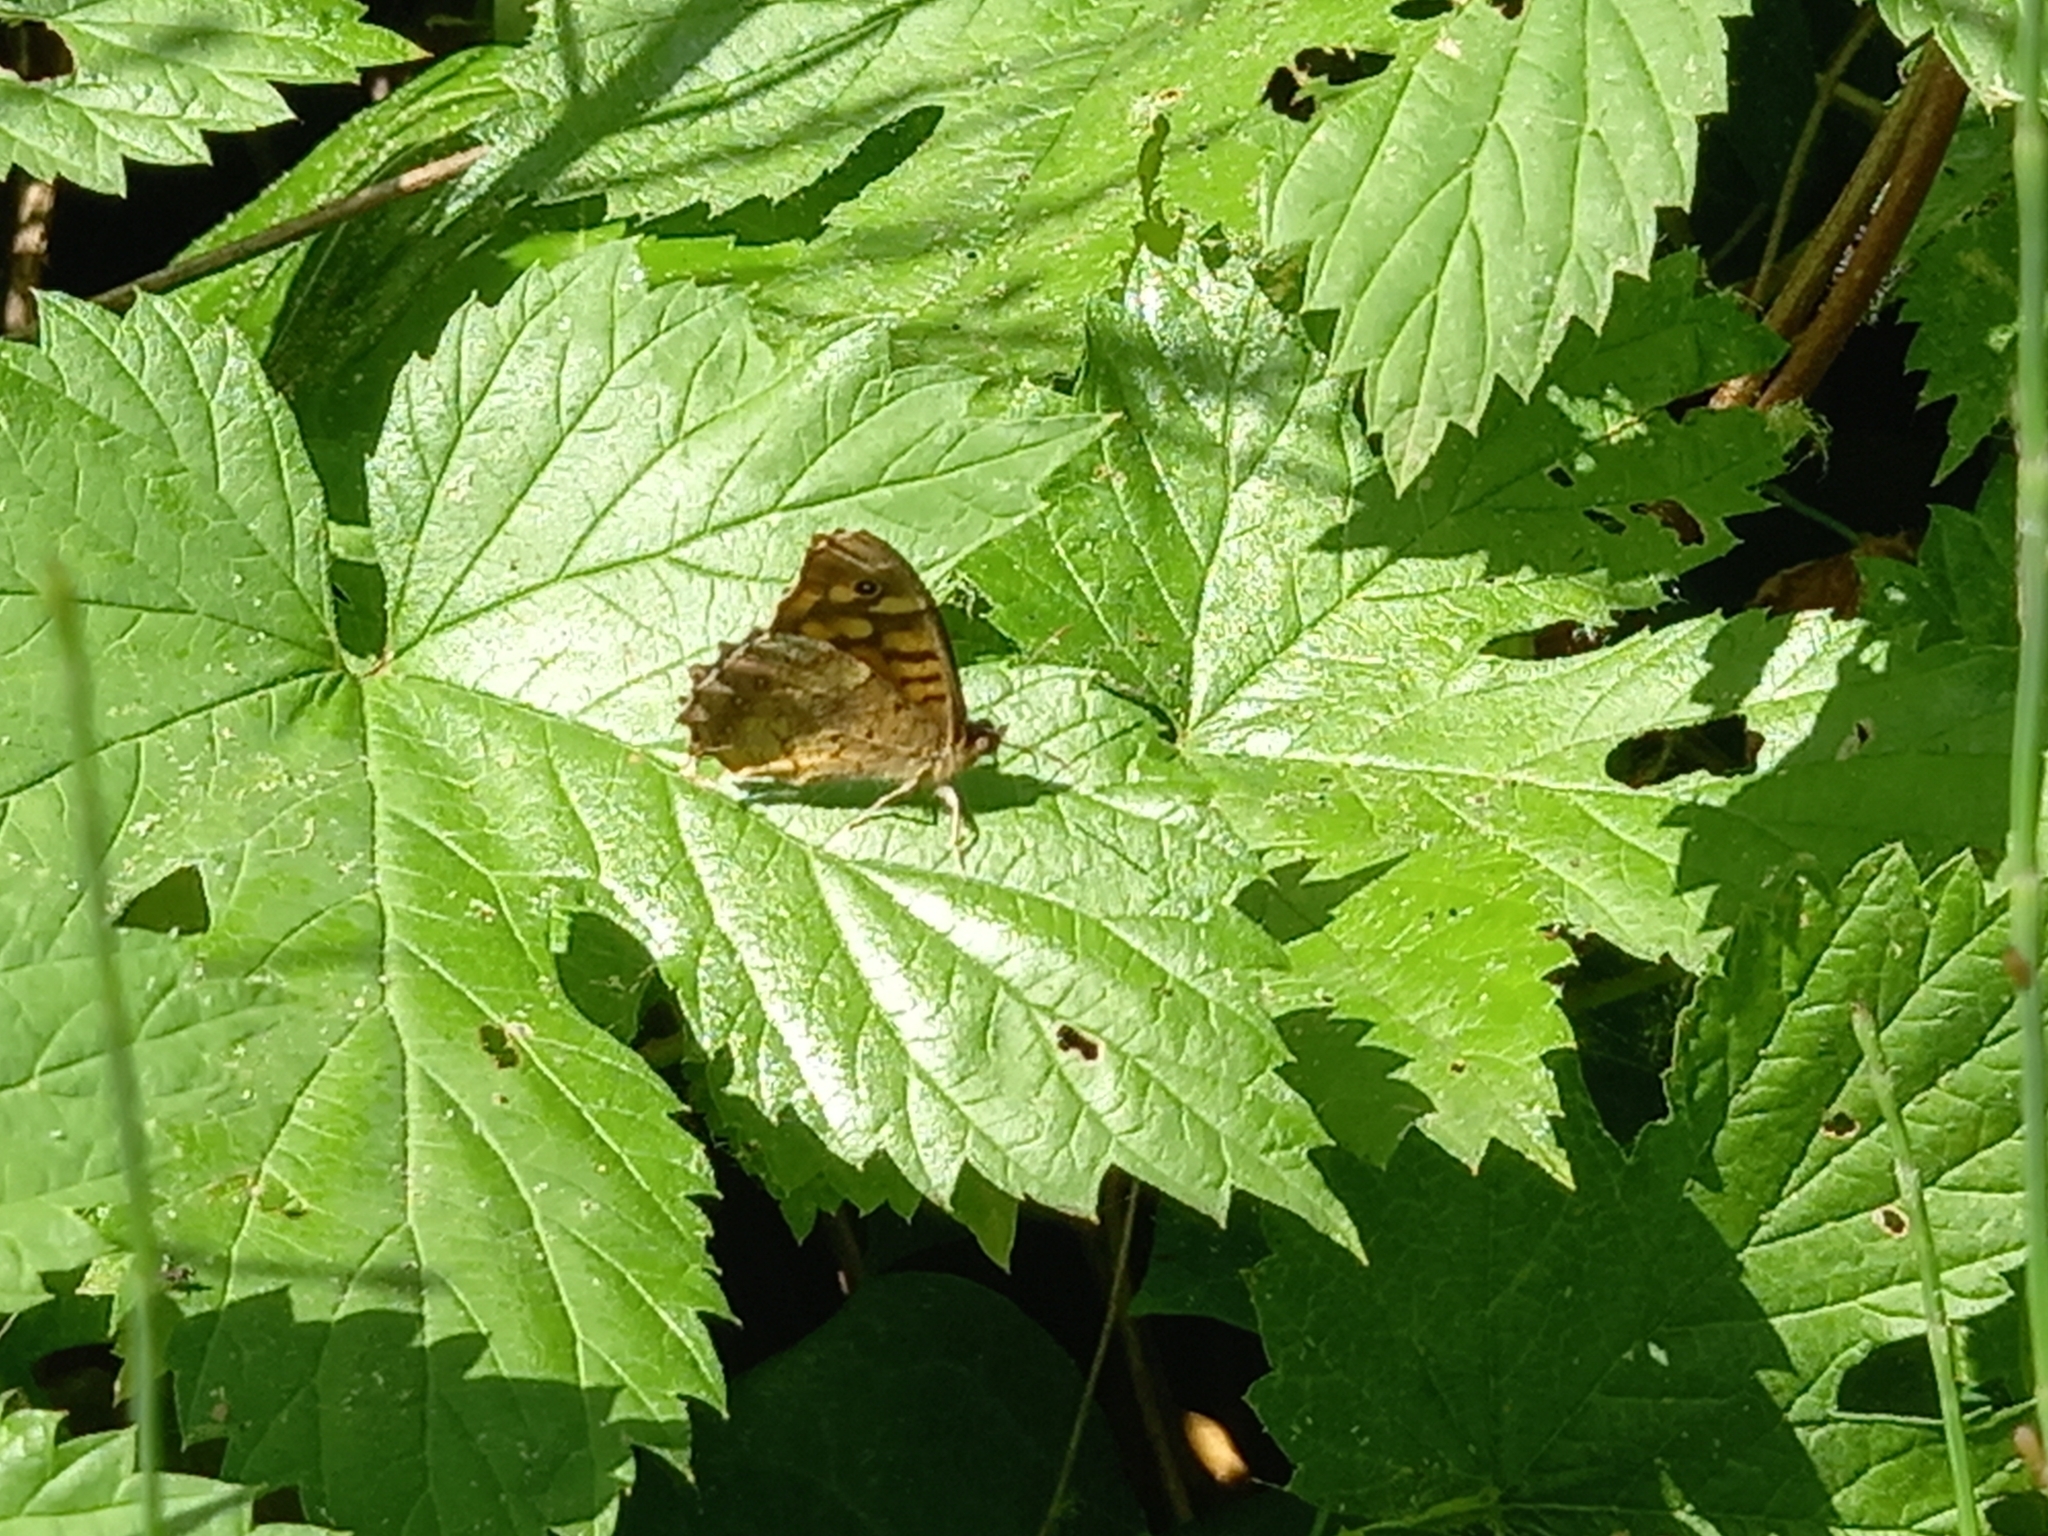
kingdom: Animalia
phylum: Arthropoda
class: Insecta
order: Lepidoptera
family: Nymphalidae
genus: Pararge
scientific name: Pararge aegeria
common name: Speckled wood
